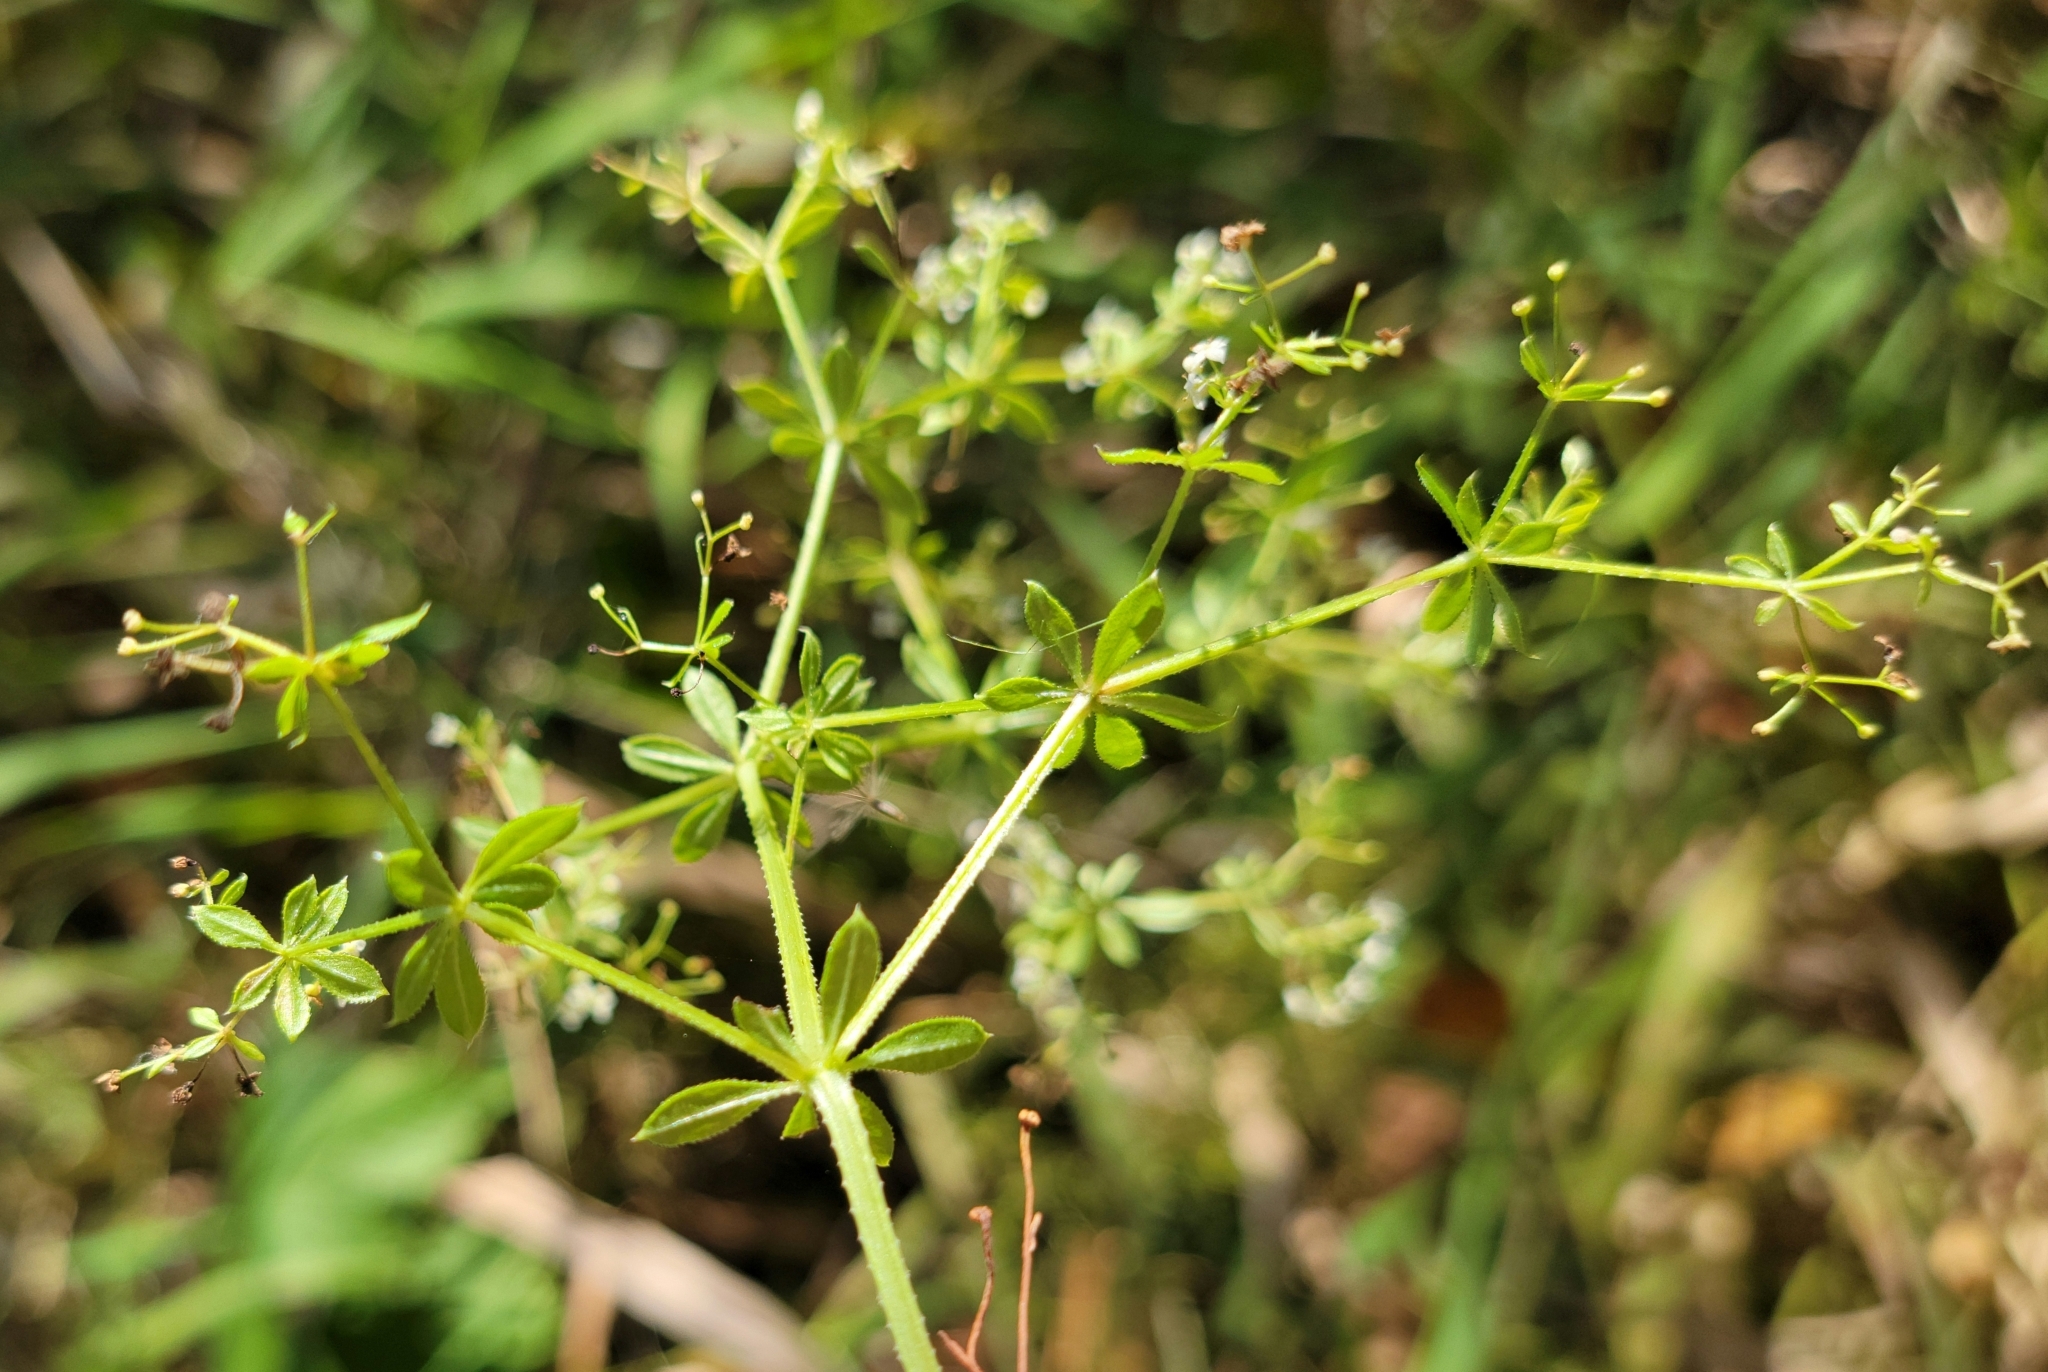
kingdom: Plantae
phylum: Tracheophyta
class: Magnoliopsida
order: Gentianales
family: Rubiaceae
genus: Galium
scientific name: Galium asprellum
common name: Rough bedstraw
